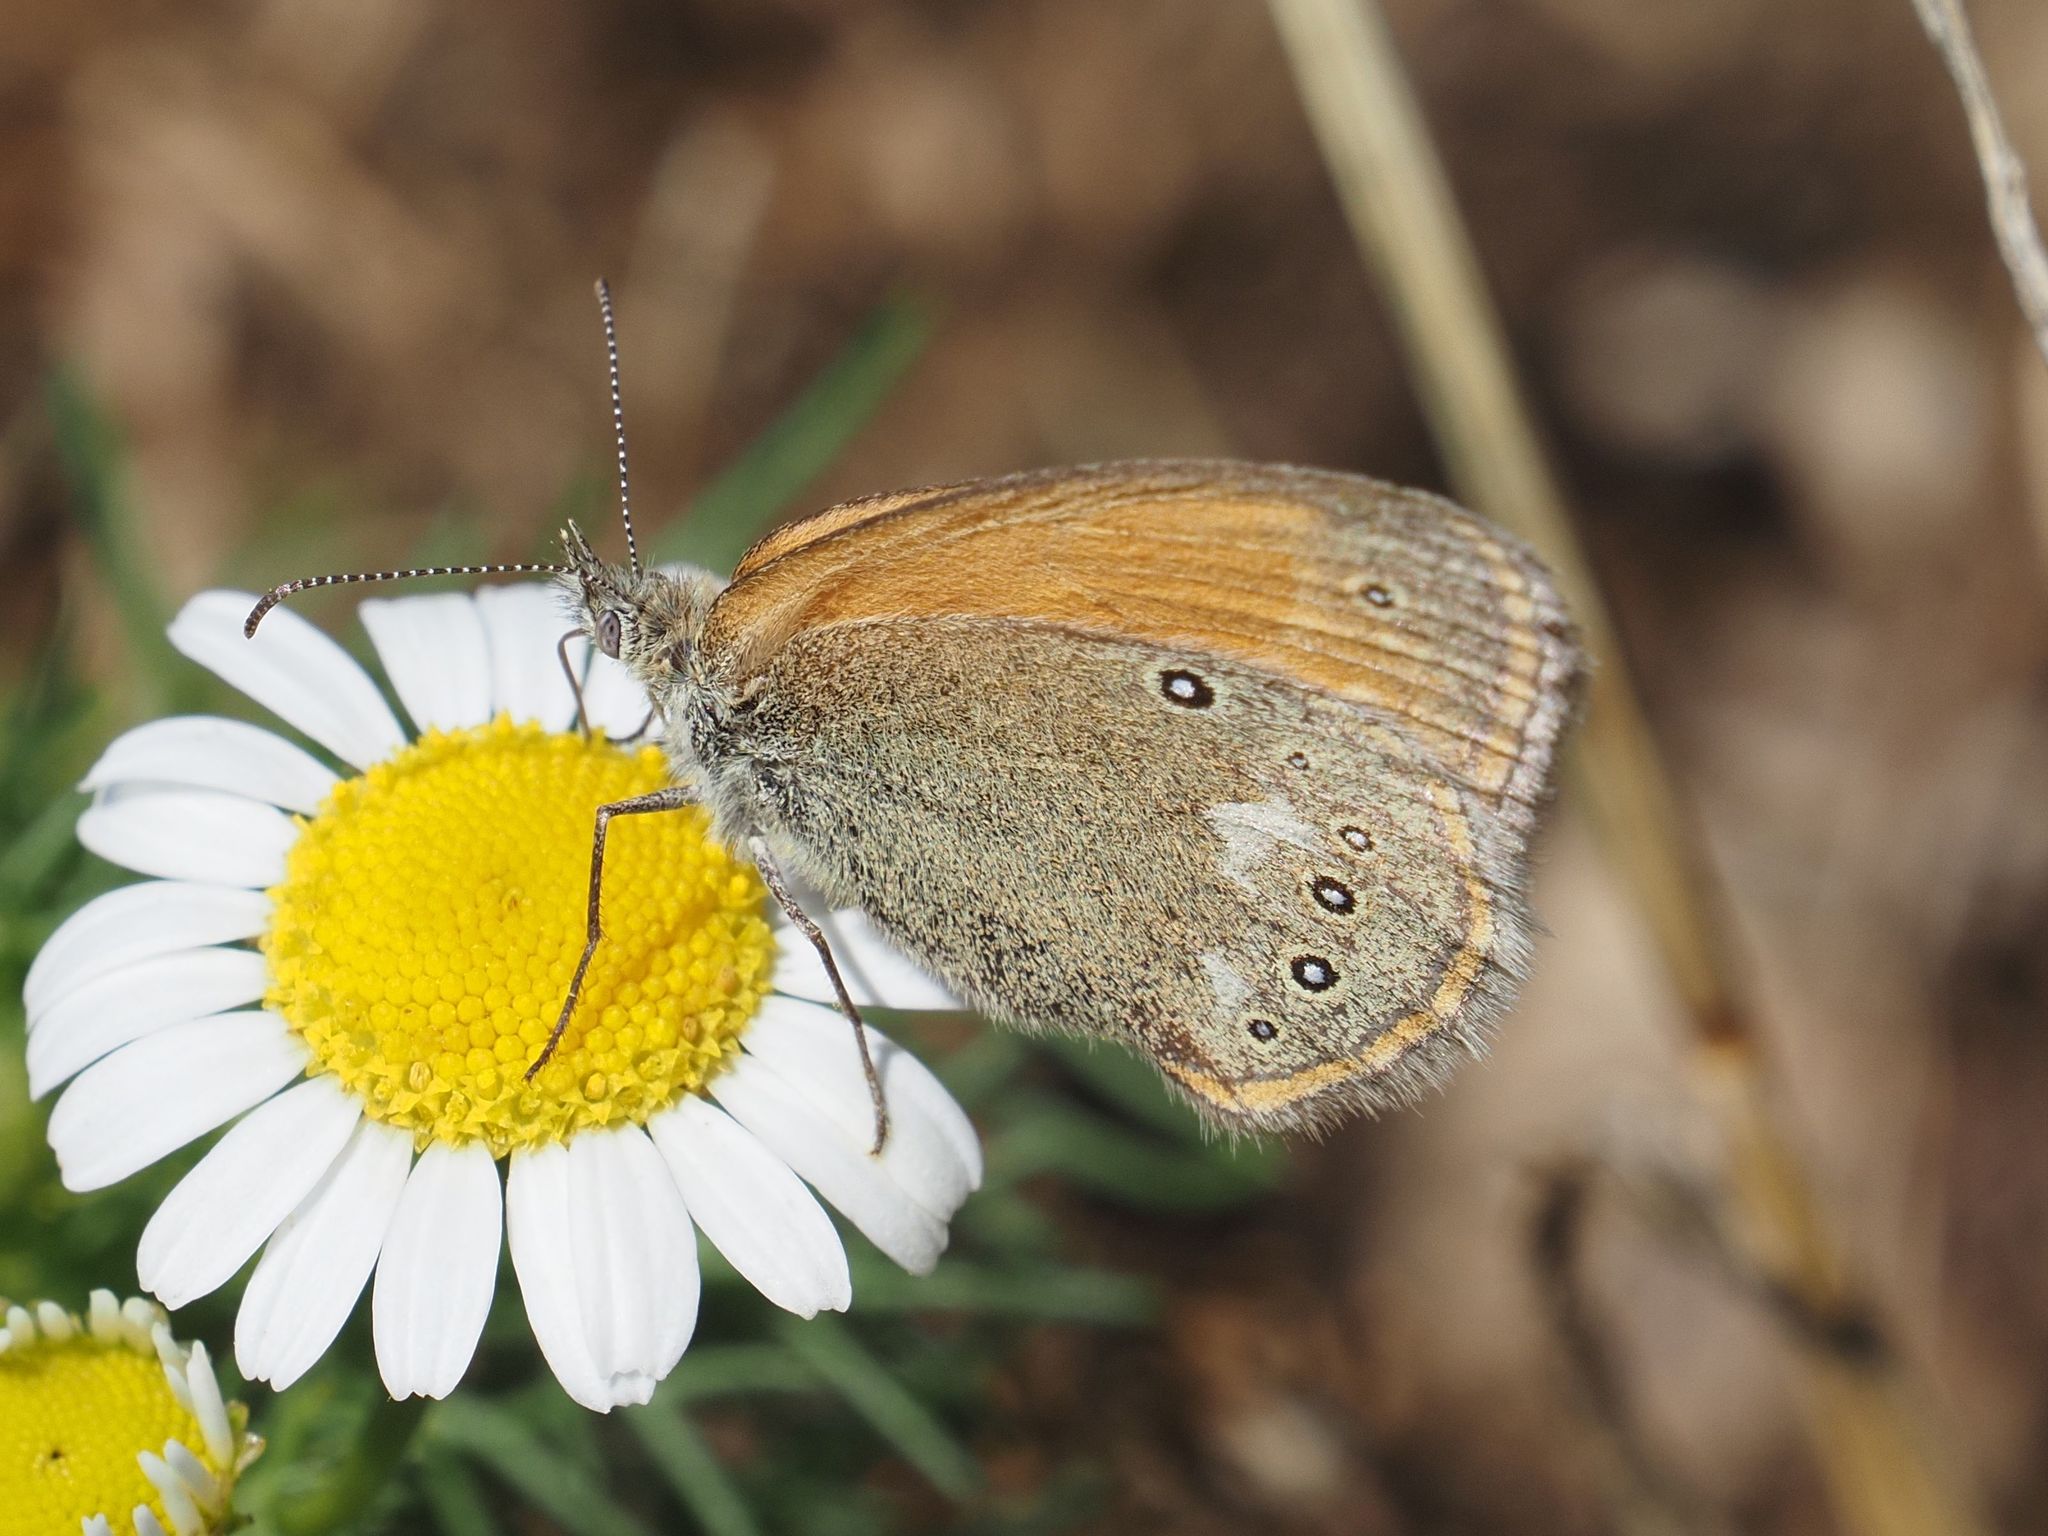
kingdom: Animalia
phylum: Arthropoda
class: Insecta
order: Lepidoptera
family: Nymphalidae
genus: Coenonympha
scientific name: Coenonympha iphis
